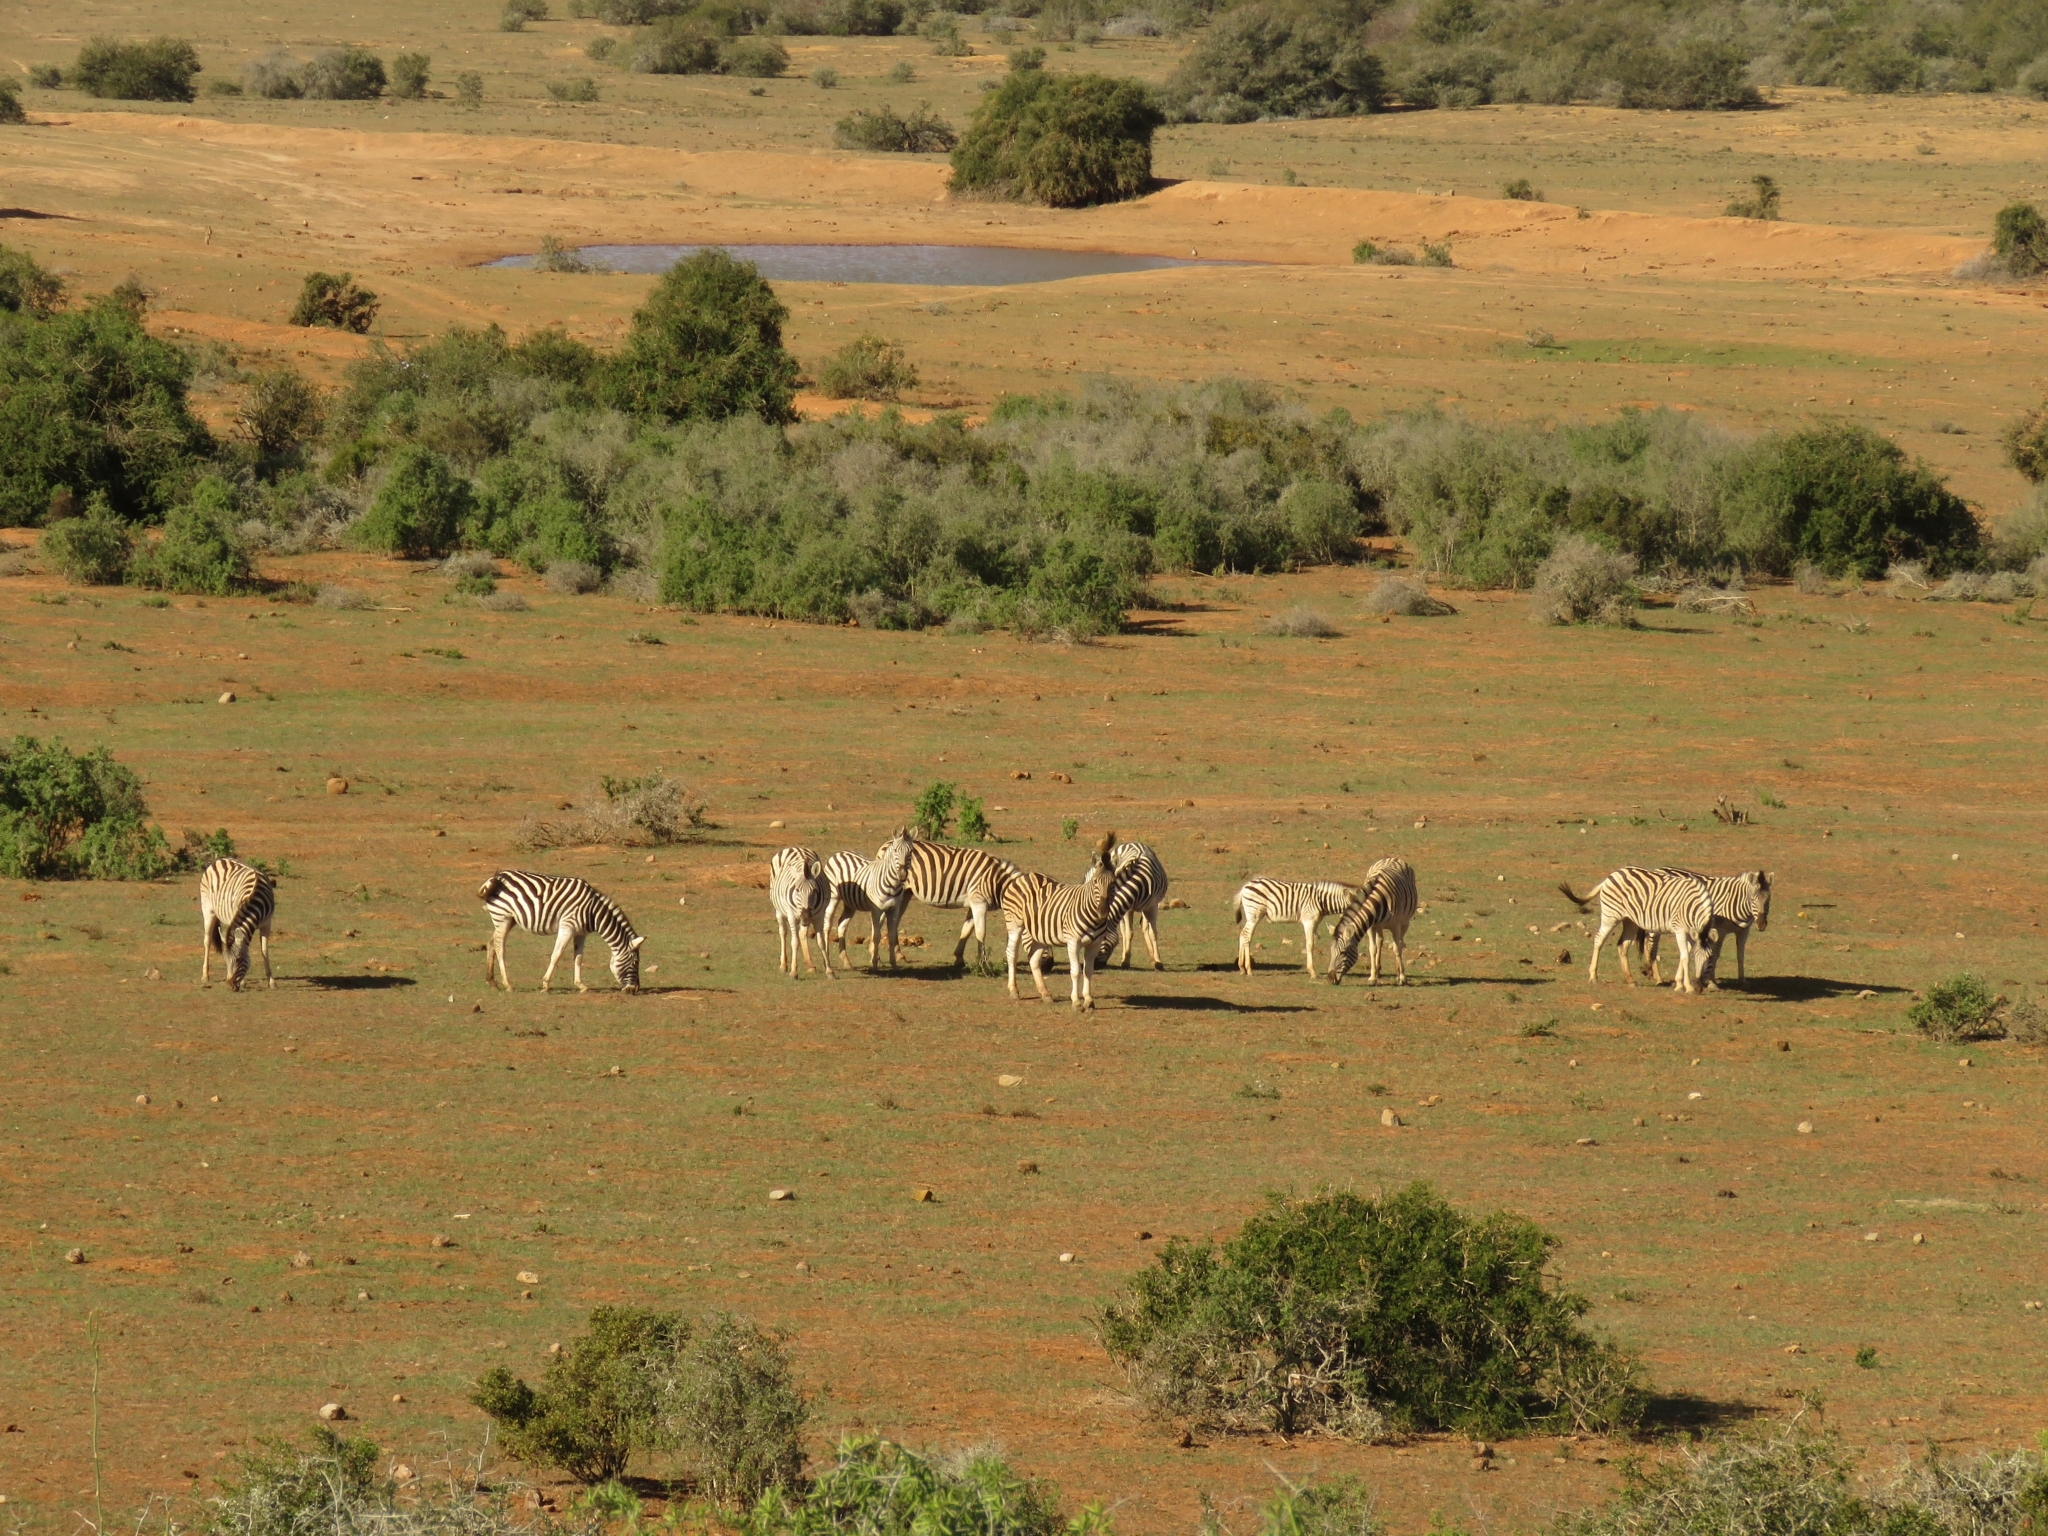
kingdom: Animalia
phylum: Chordata
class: Mammalia
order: Perissodactyla
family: Equidae
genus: Equus
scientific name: Equus quagga
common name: Plains zebra
